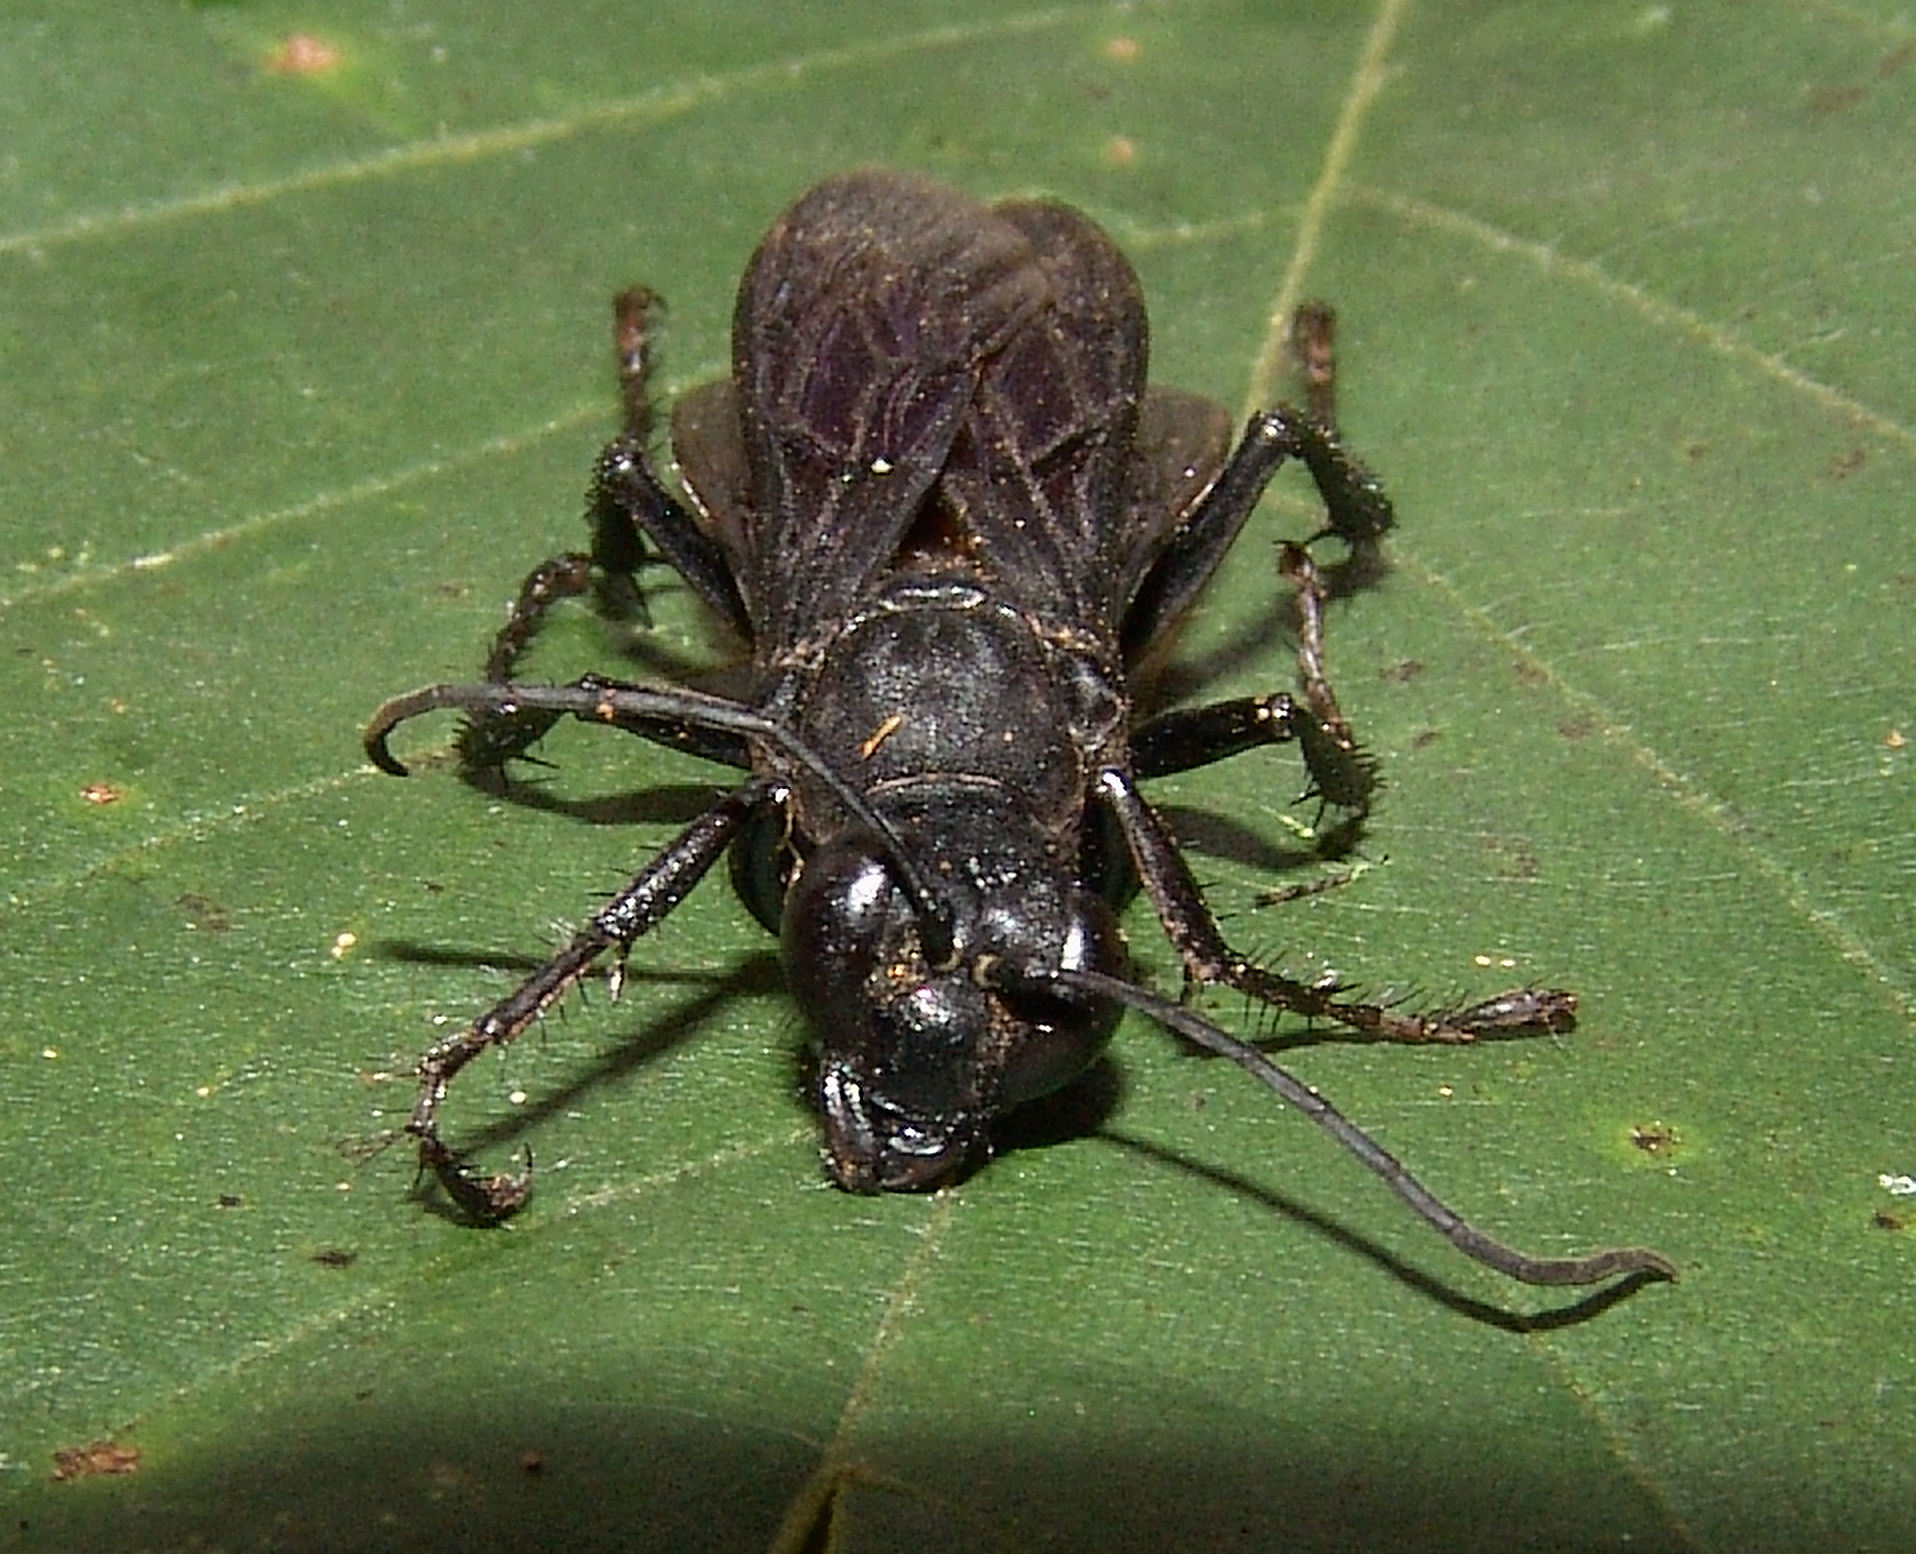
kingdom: Animalia
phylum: Arthropoda
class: Insecta
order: Hymenoptera
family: Sphecidae
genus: Sphex
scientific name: Sphex pensylvanicus
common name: Great black digger wasp
